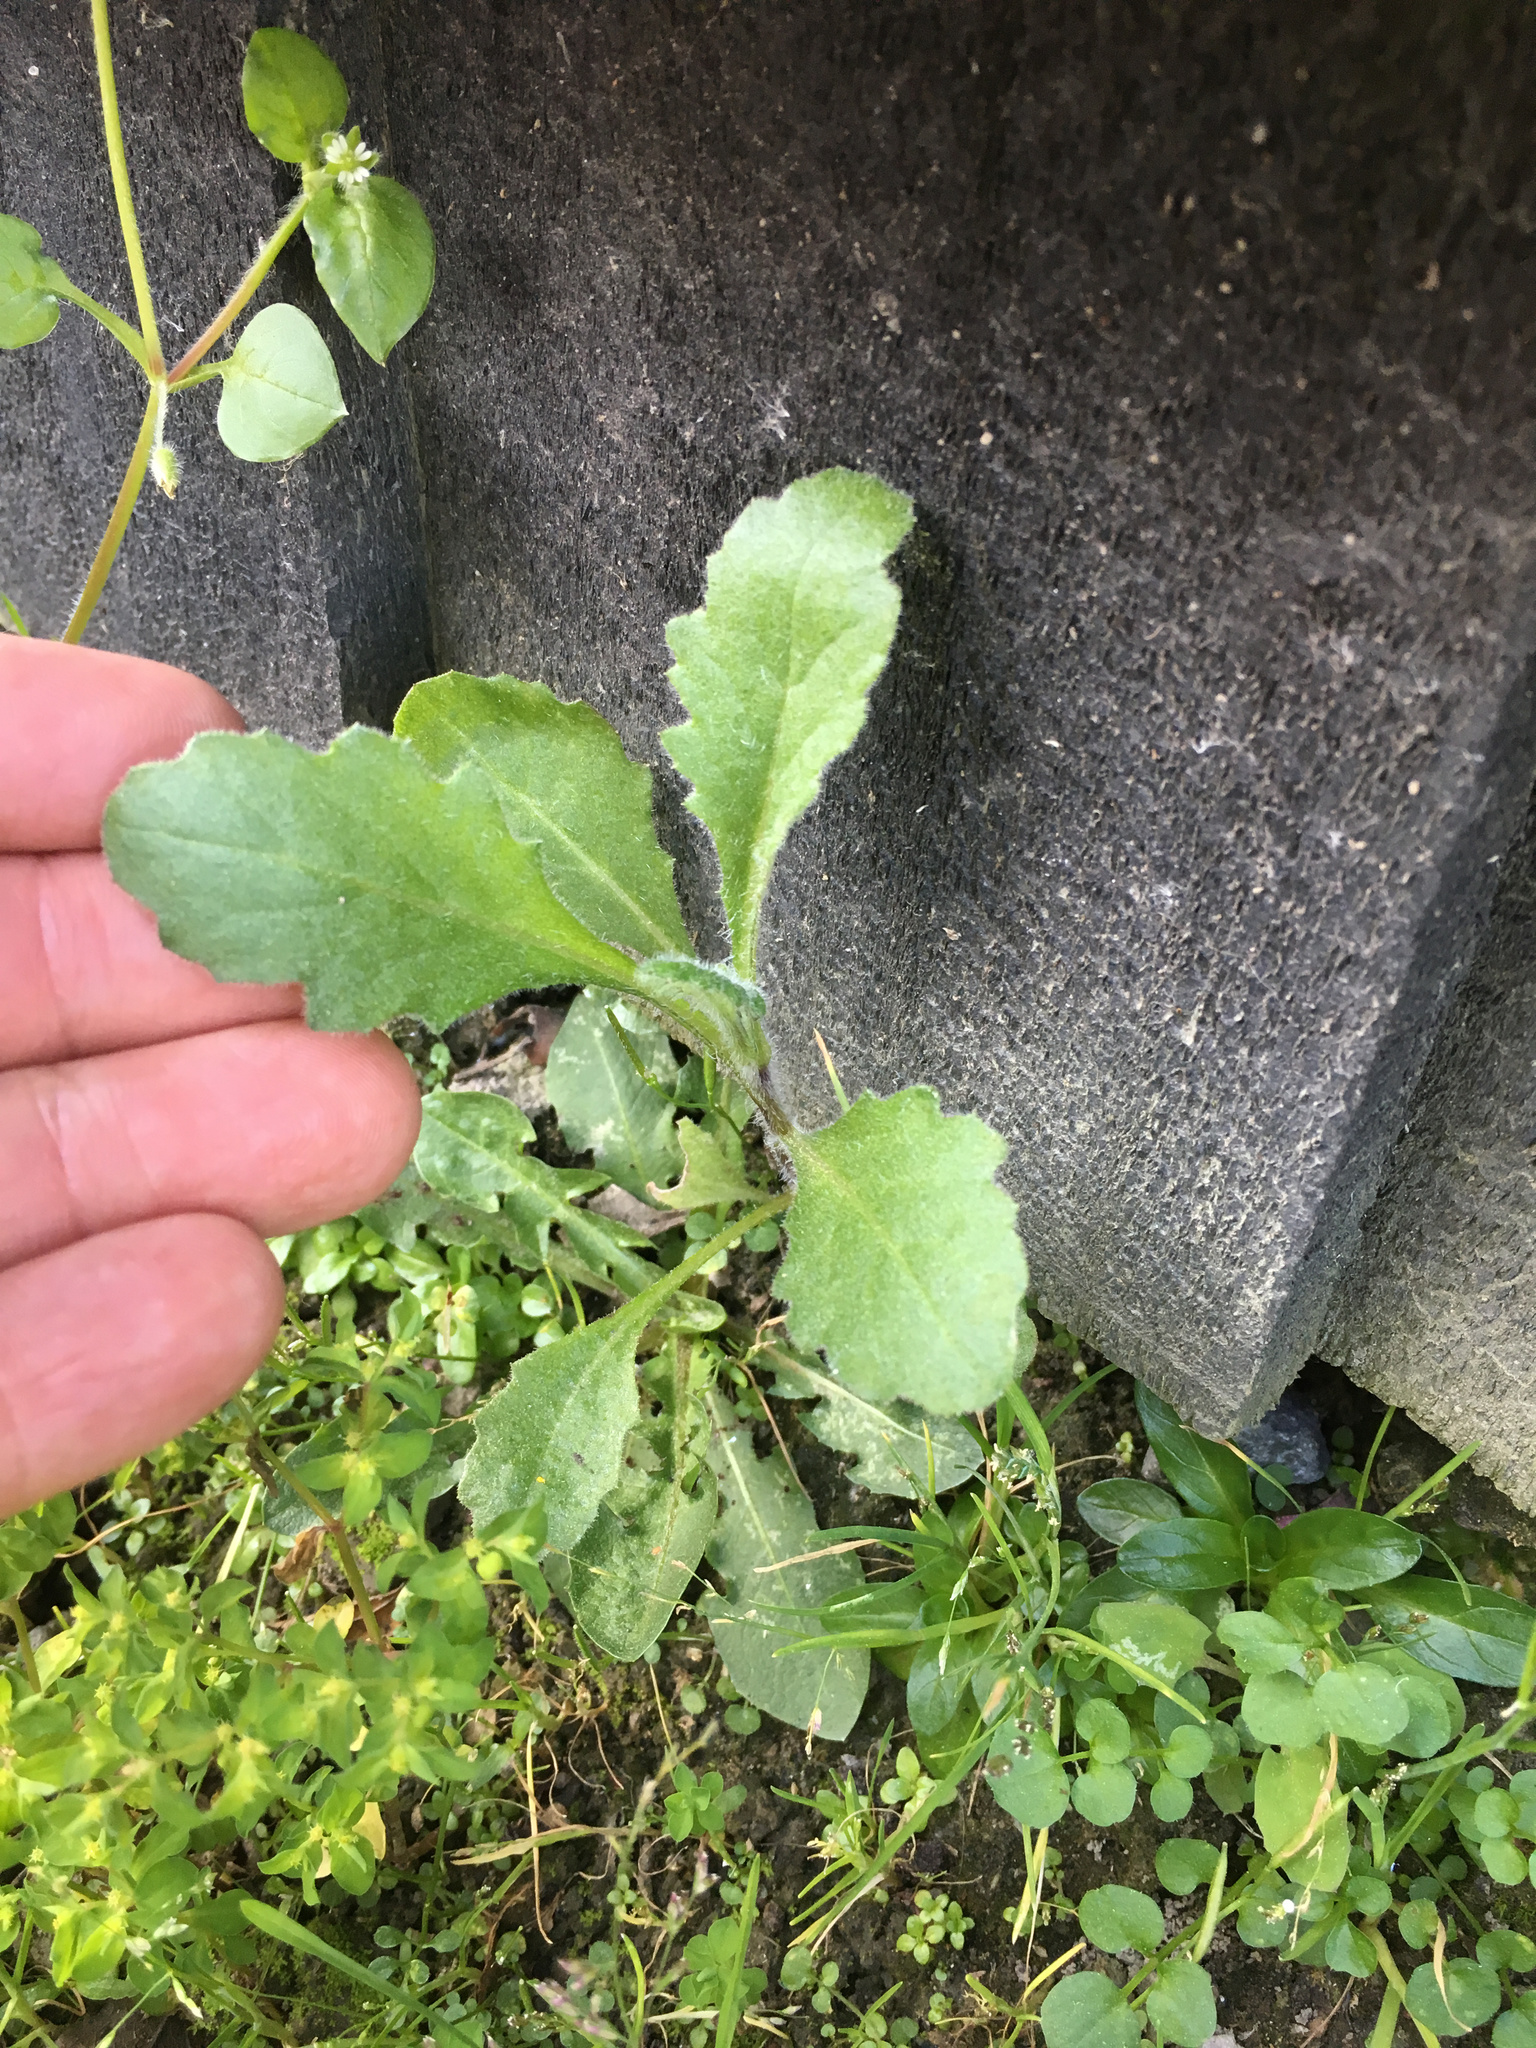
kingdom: Plantae
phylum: Tracheophyta
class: Magnoliopsida
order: Asterales
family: Asteraceae
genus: Senecio
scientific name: Senecio glomeratus
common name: Cutleaf burnweed
